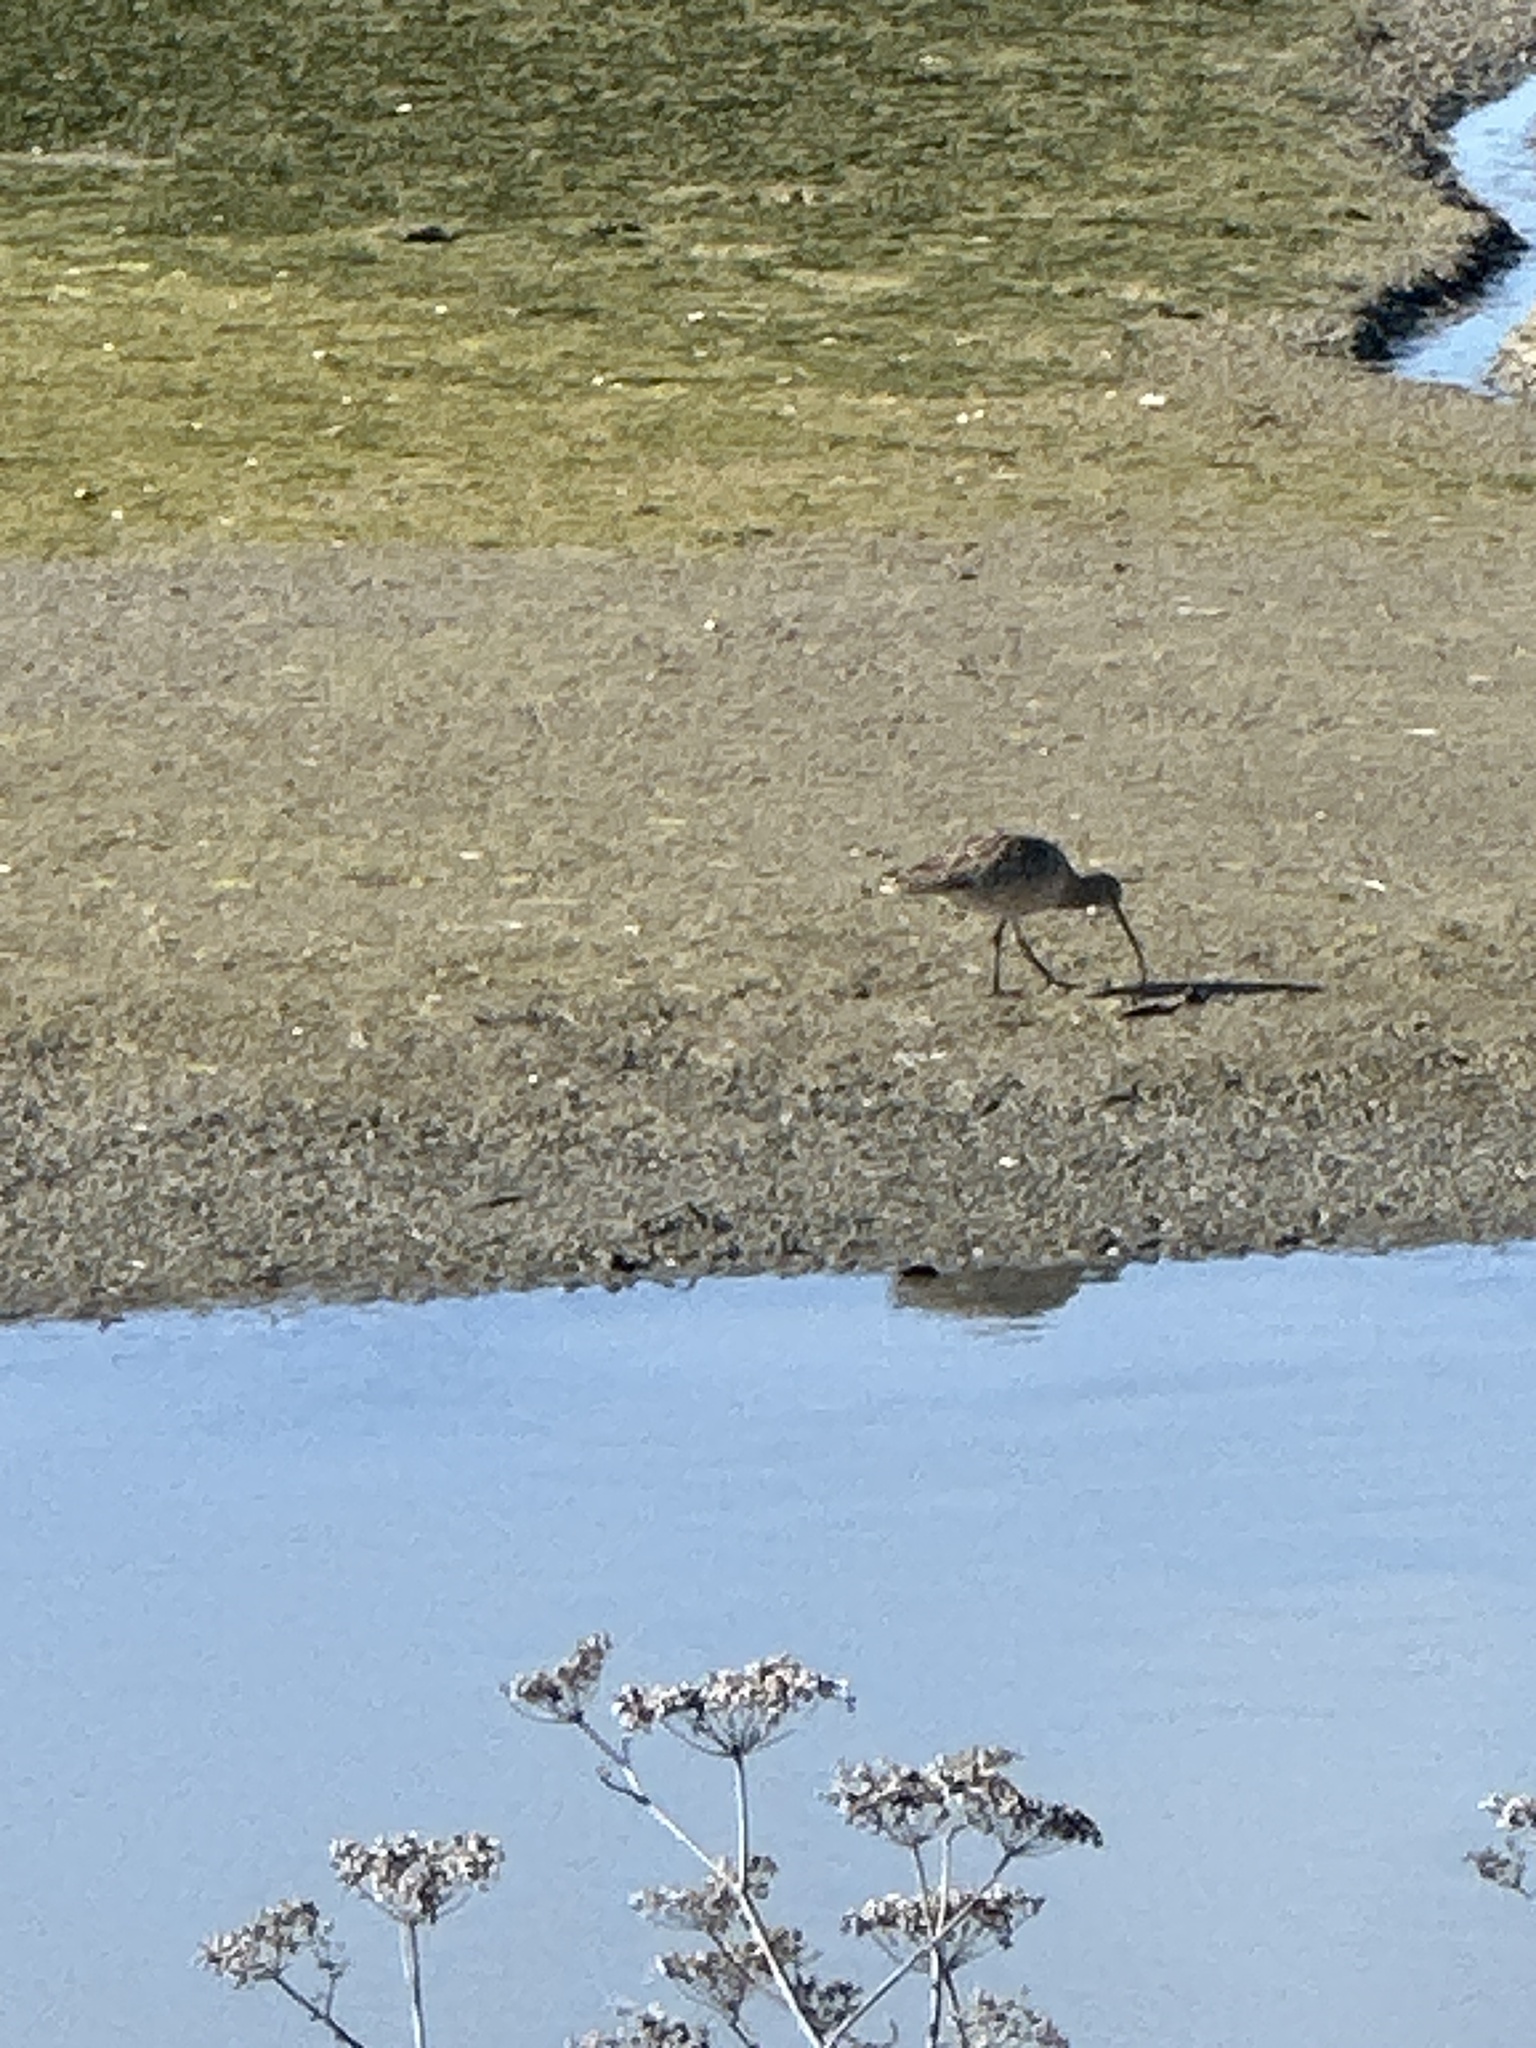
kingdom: Animalia
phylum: Chordata
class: Aves
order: Charadriiformes
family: Scolopacidae
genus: Numenius
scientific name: Numenius americanus
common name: Long-billed curlew
